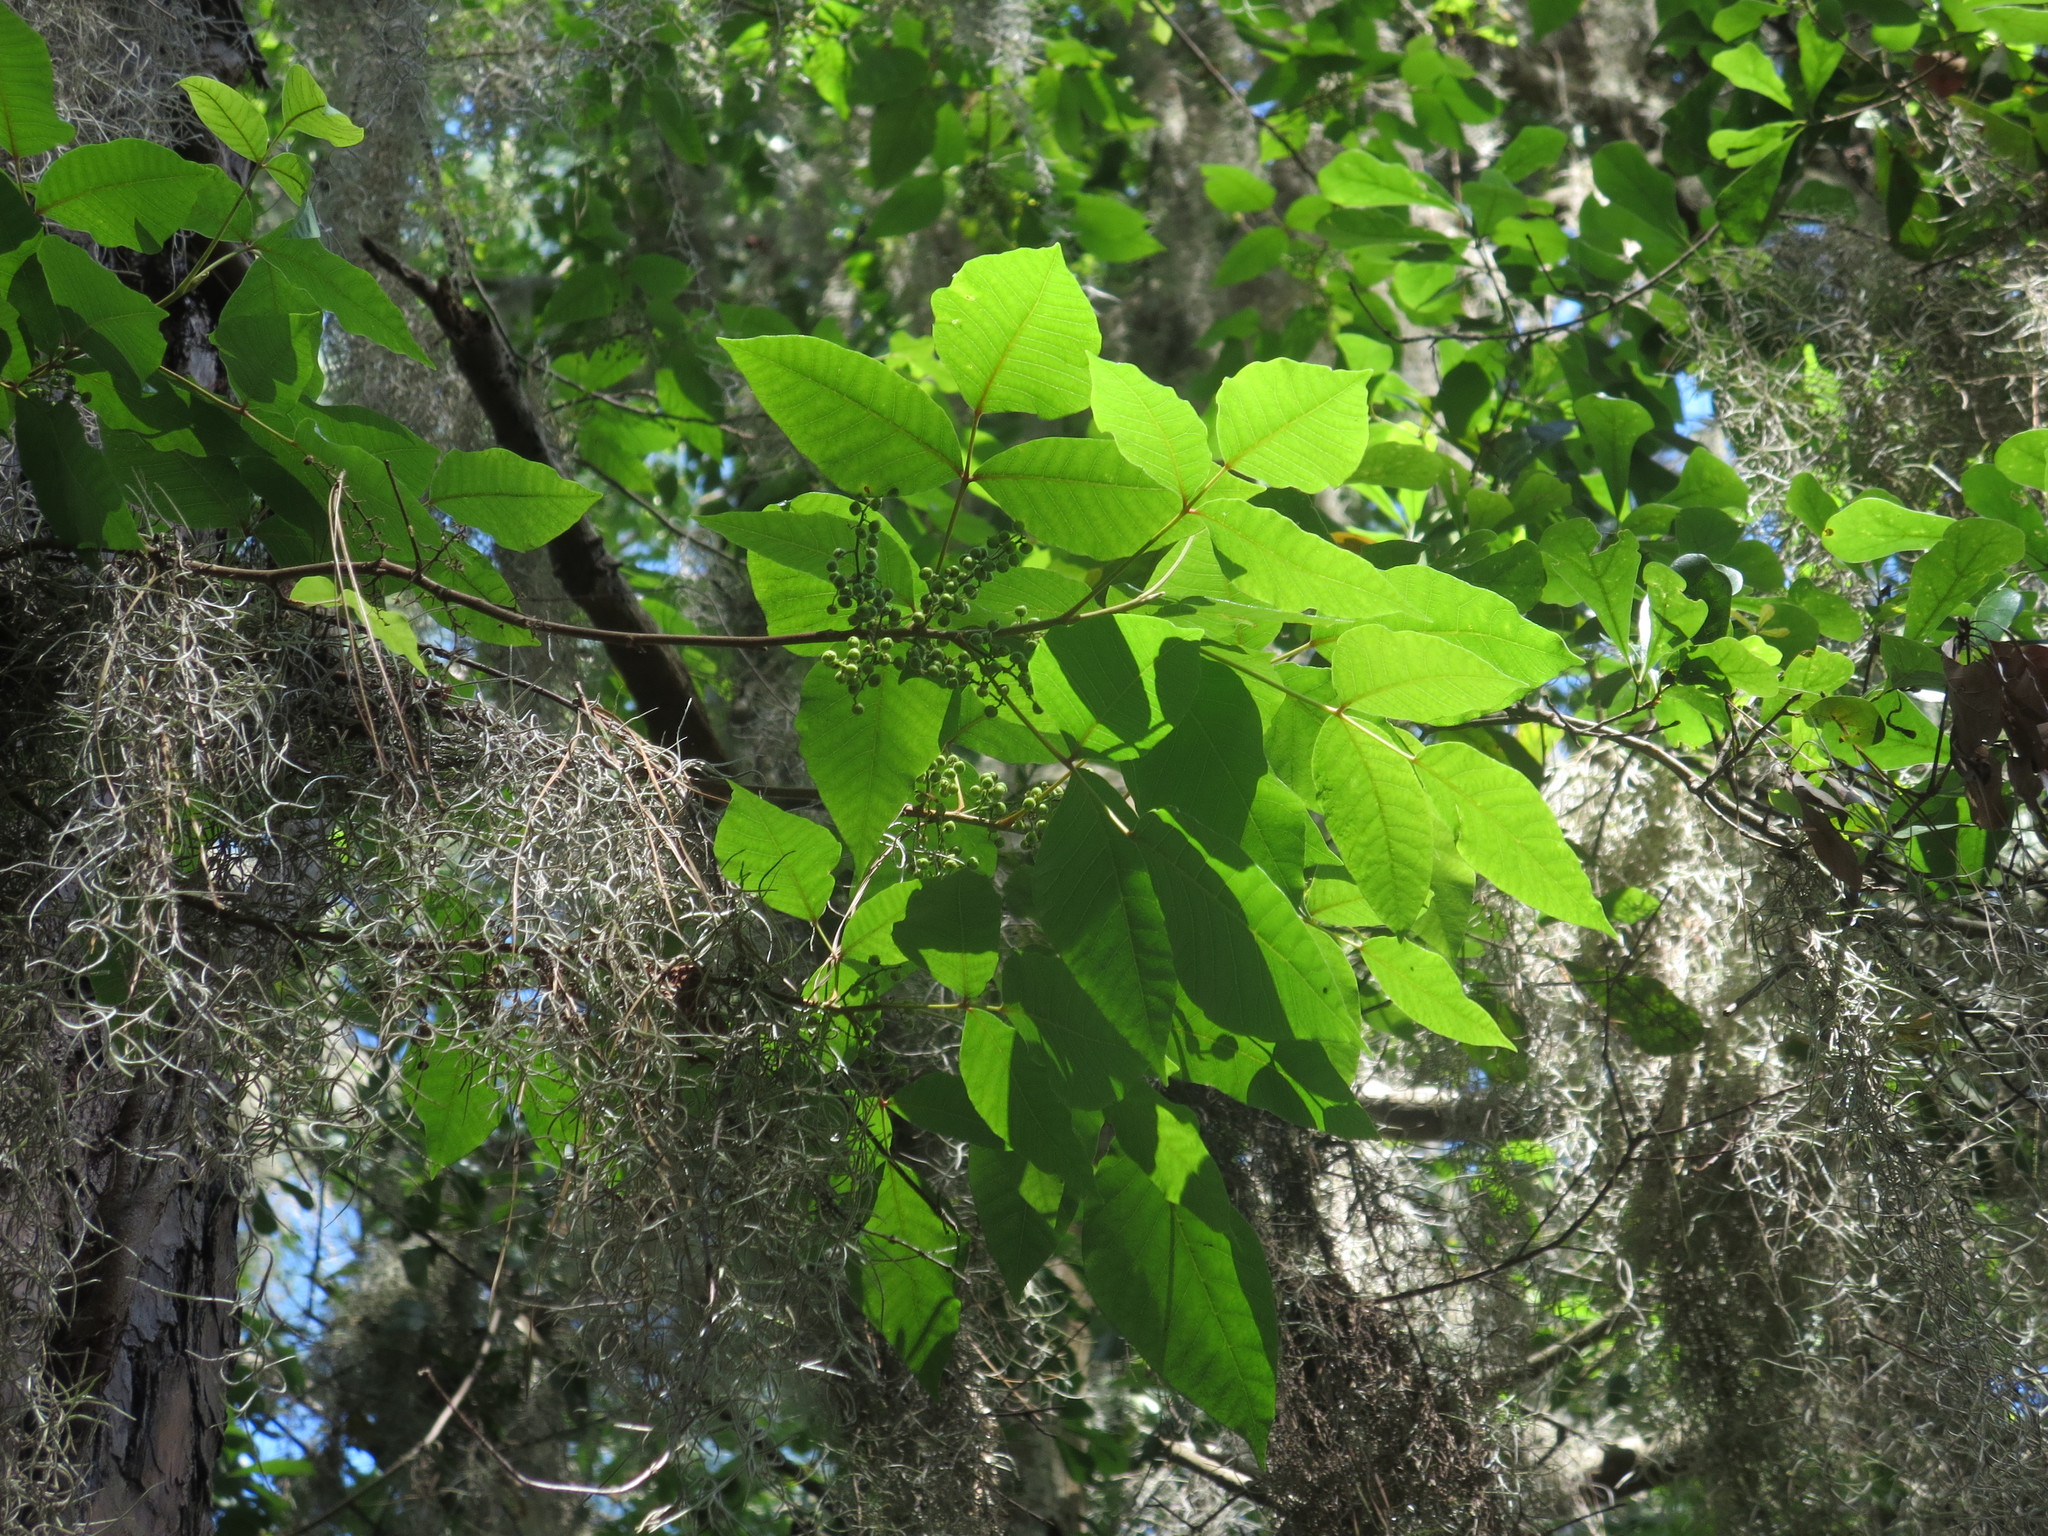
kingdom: Plantae
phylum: Tracheophyta
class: Magnoliopsida
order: Sapindales
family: Anacardiaceae
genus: Toxicodendron
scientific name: Toxicodendron radicans
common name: Poison ivy
